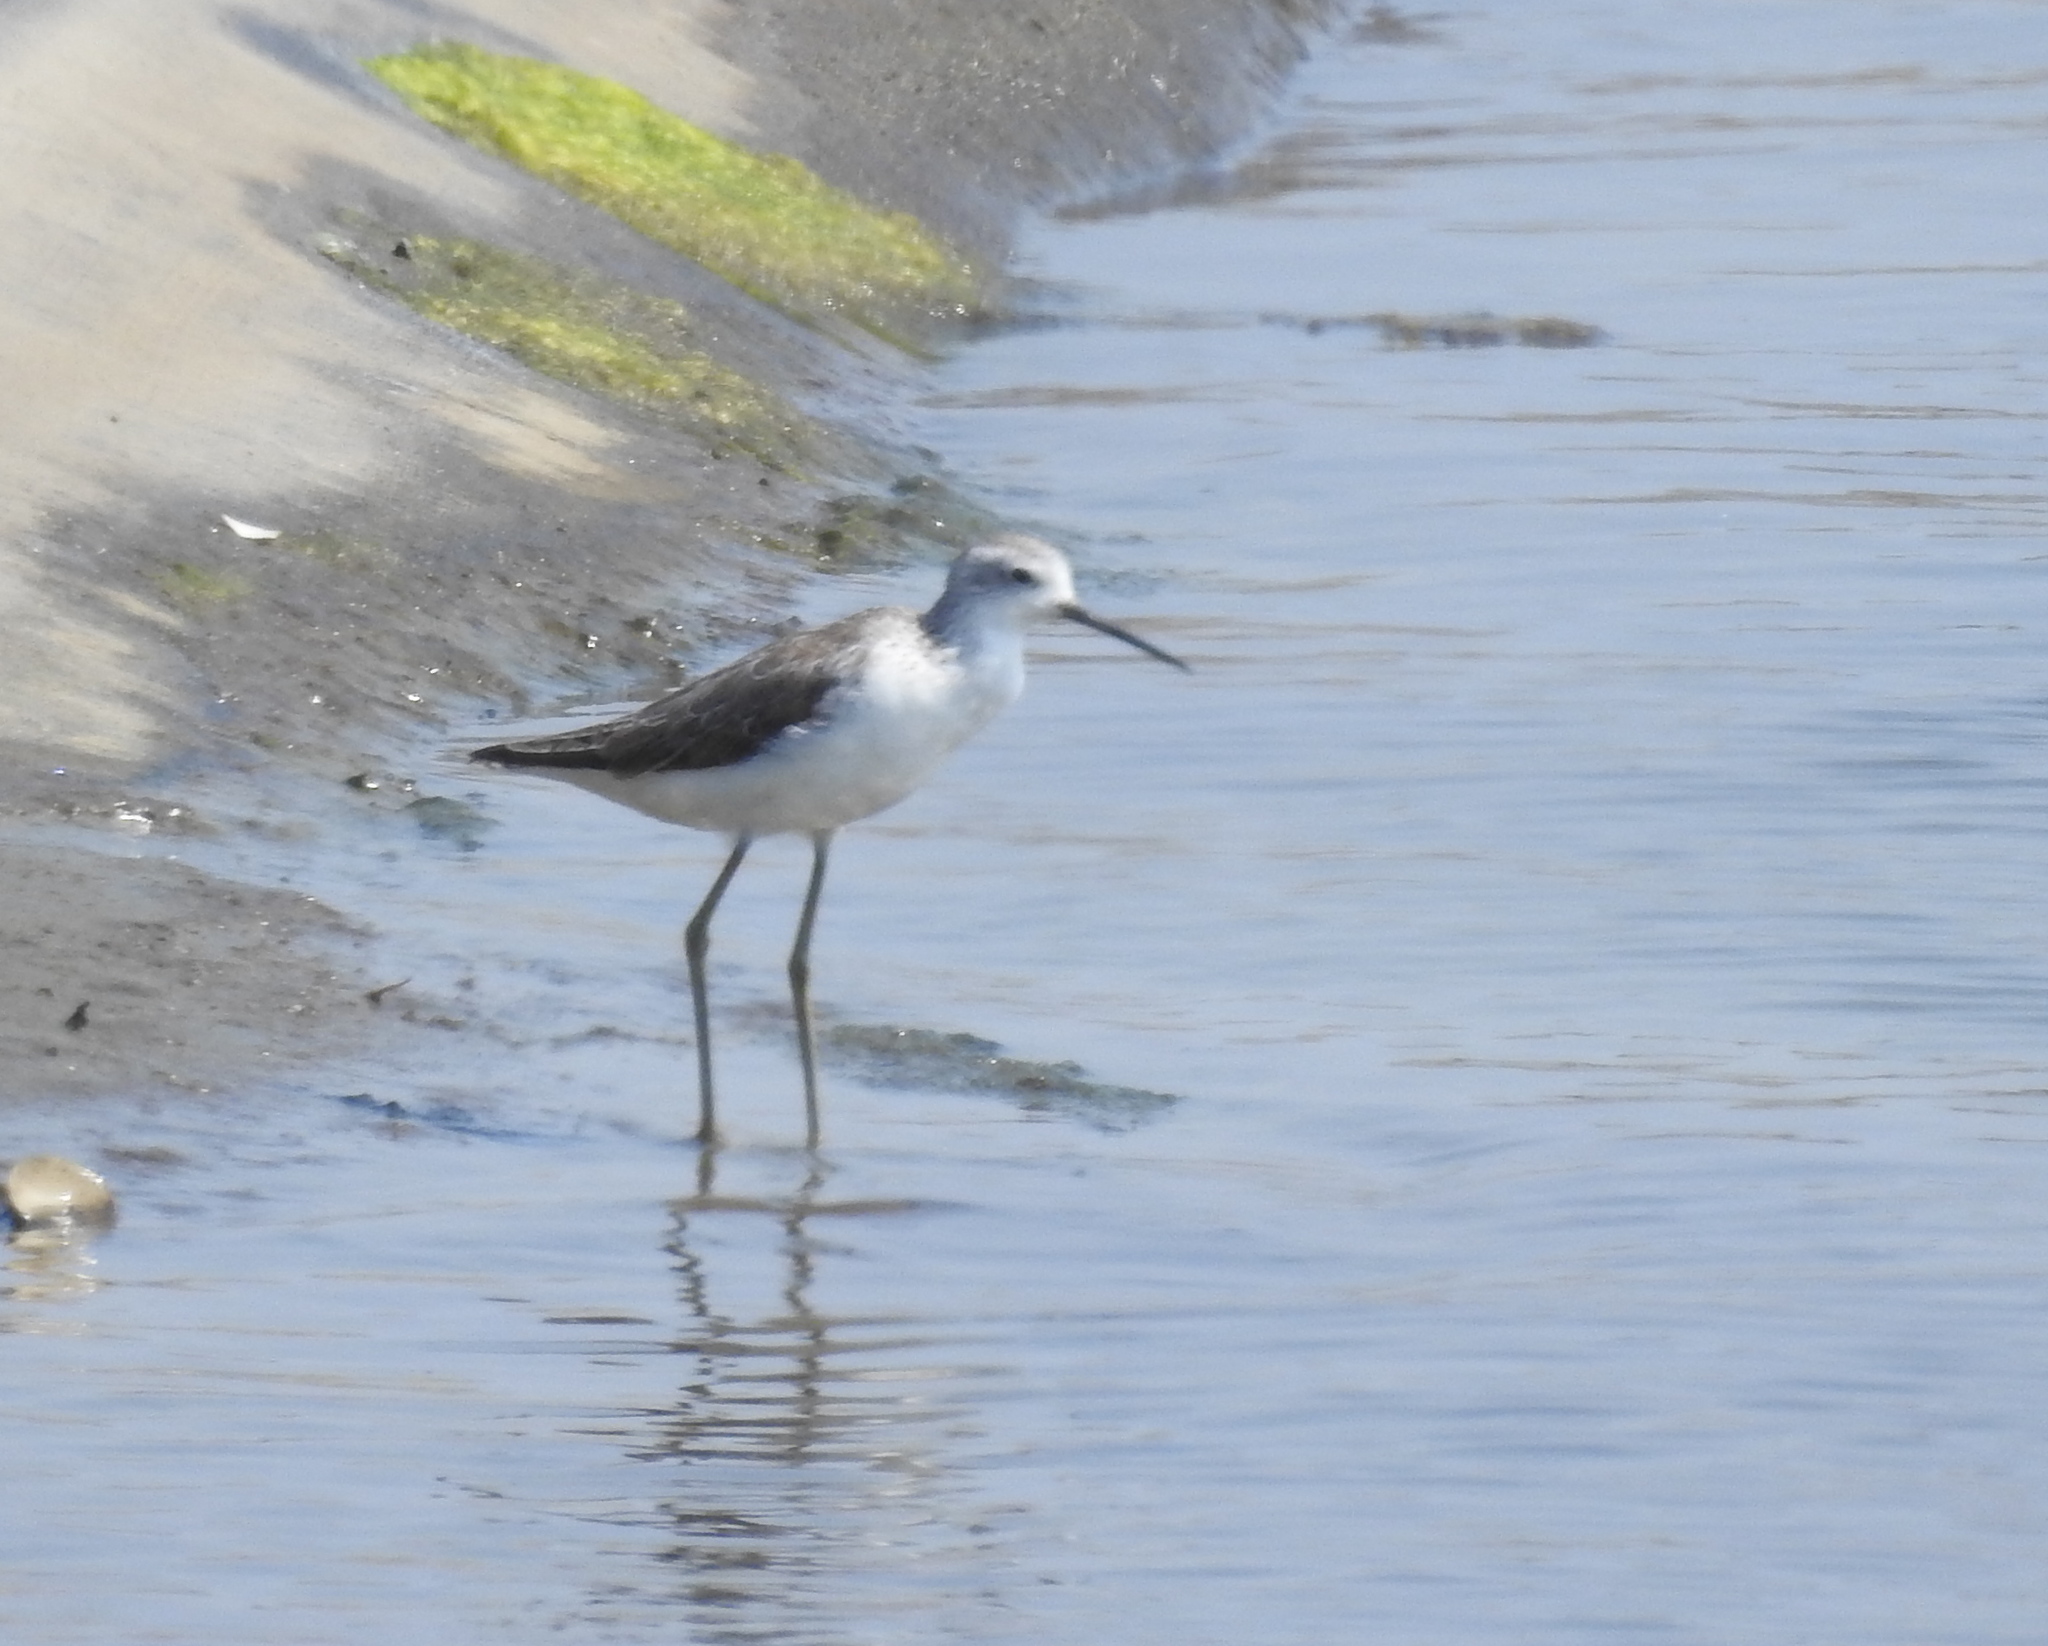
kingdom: Animalia
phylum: Chordata
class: Aves
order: Charadriiformes
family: Scolopacidae
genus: Tringa
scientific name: Tringa stagnatilis
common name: Marsh sandpiper
